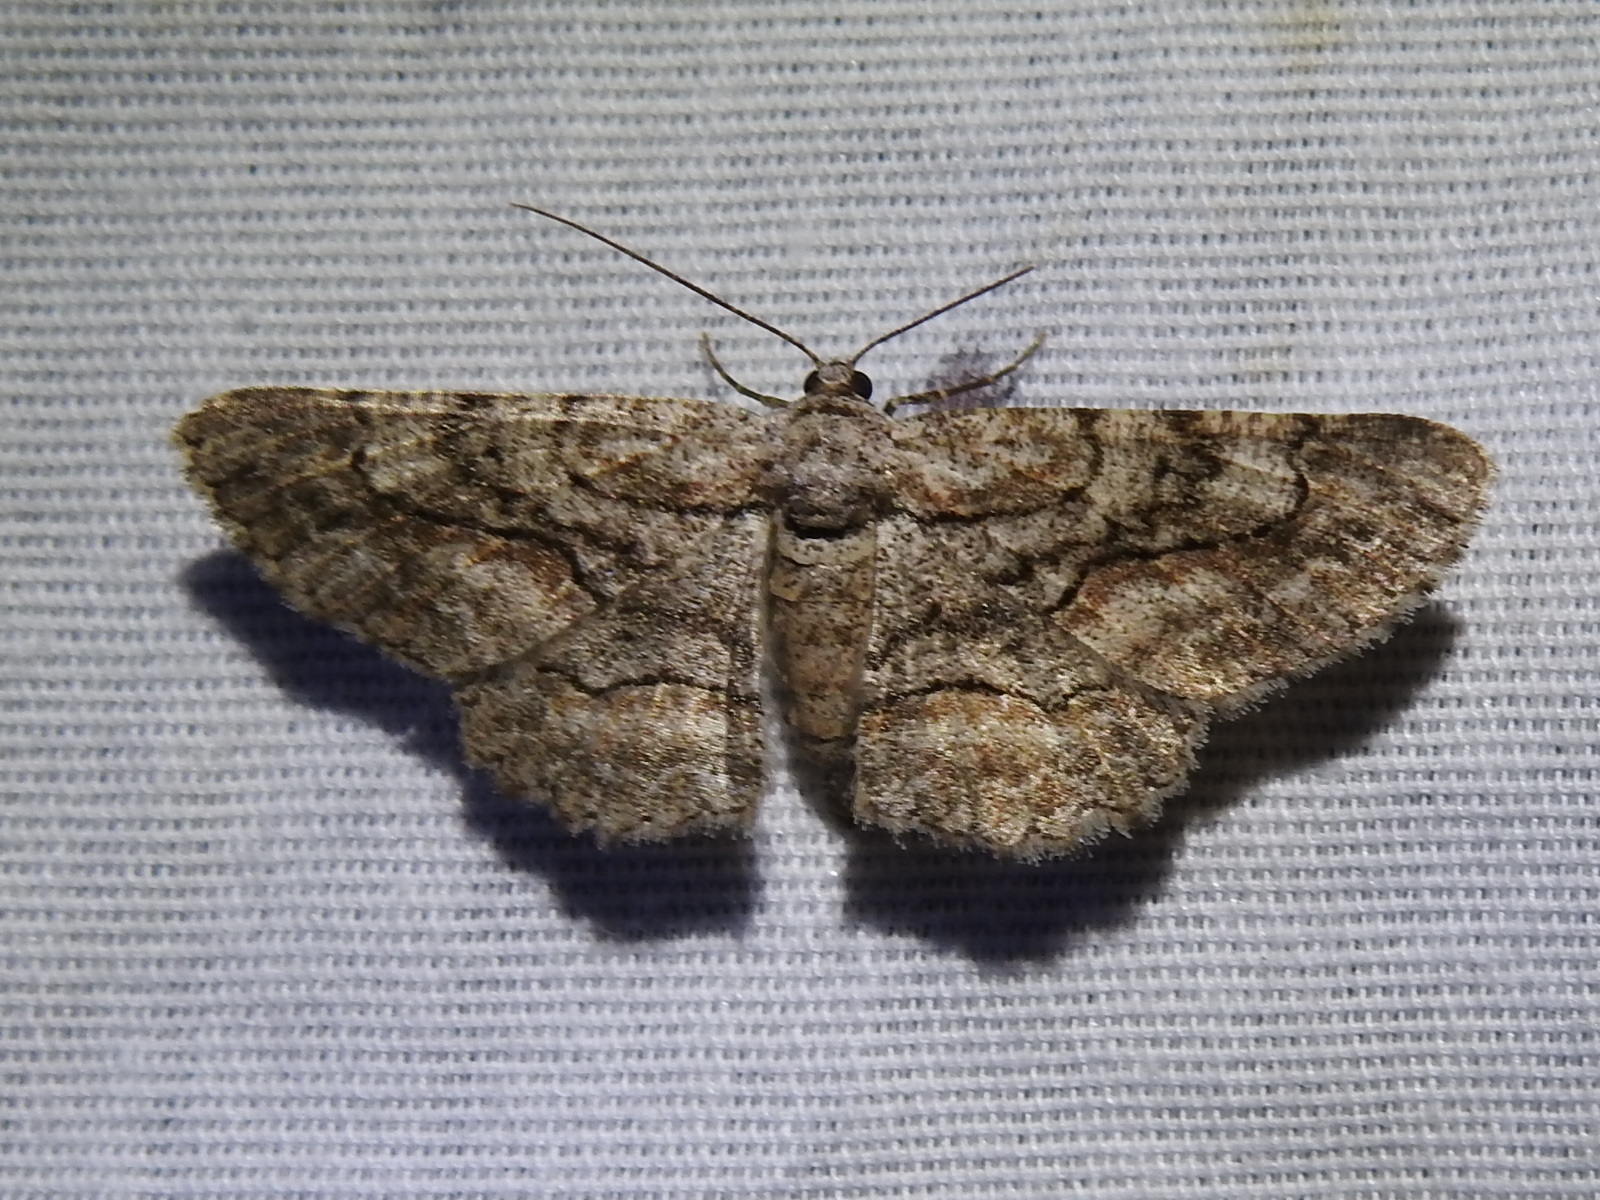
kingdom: Animalia
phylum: Arthropoda
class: Insecta
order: Lepidoptera
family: Geometridae
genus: Iridopsis
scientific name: Iridopsis defectaria
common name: Brown-shaded gray
